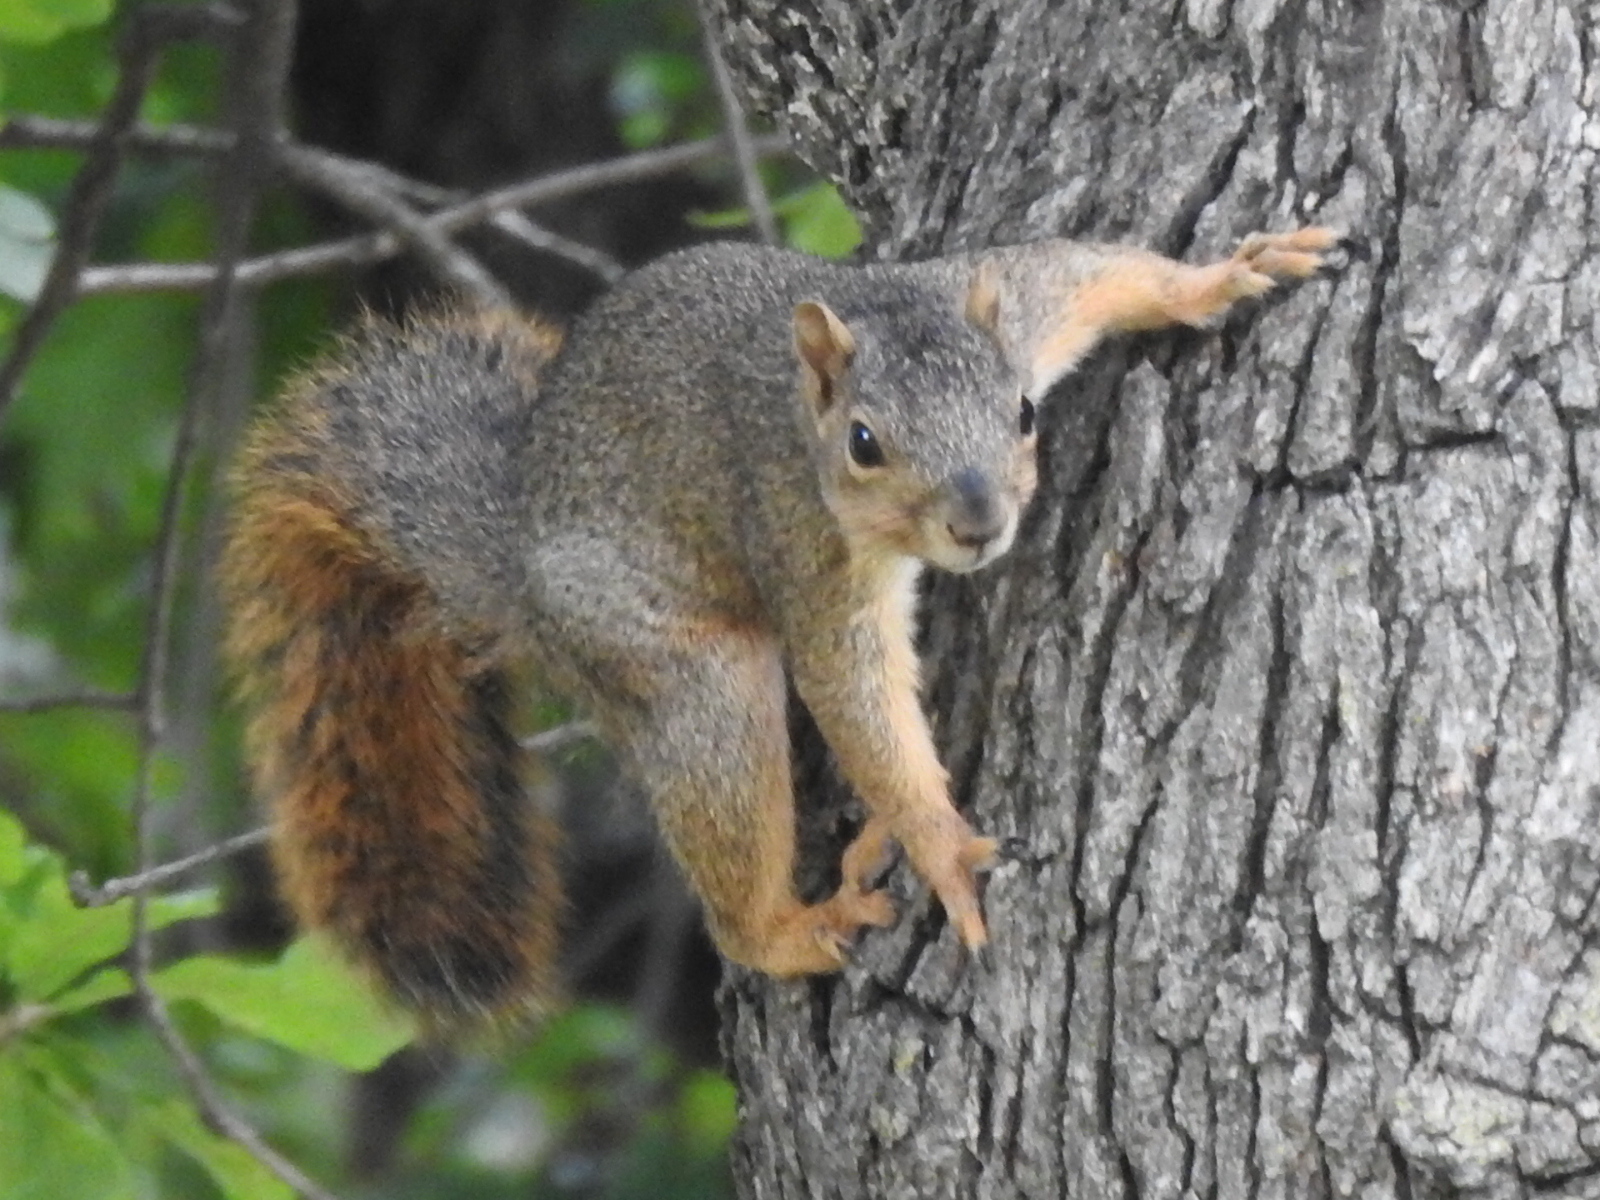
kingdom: Animalia
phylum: Chordata
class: Mammalia
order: Rodentia
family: Sciuridae
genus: Sciurus
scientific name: Sciurus niger
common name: Fox squirrel
